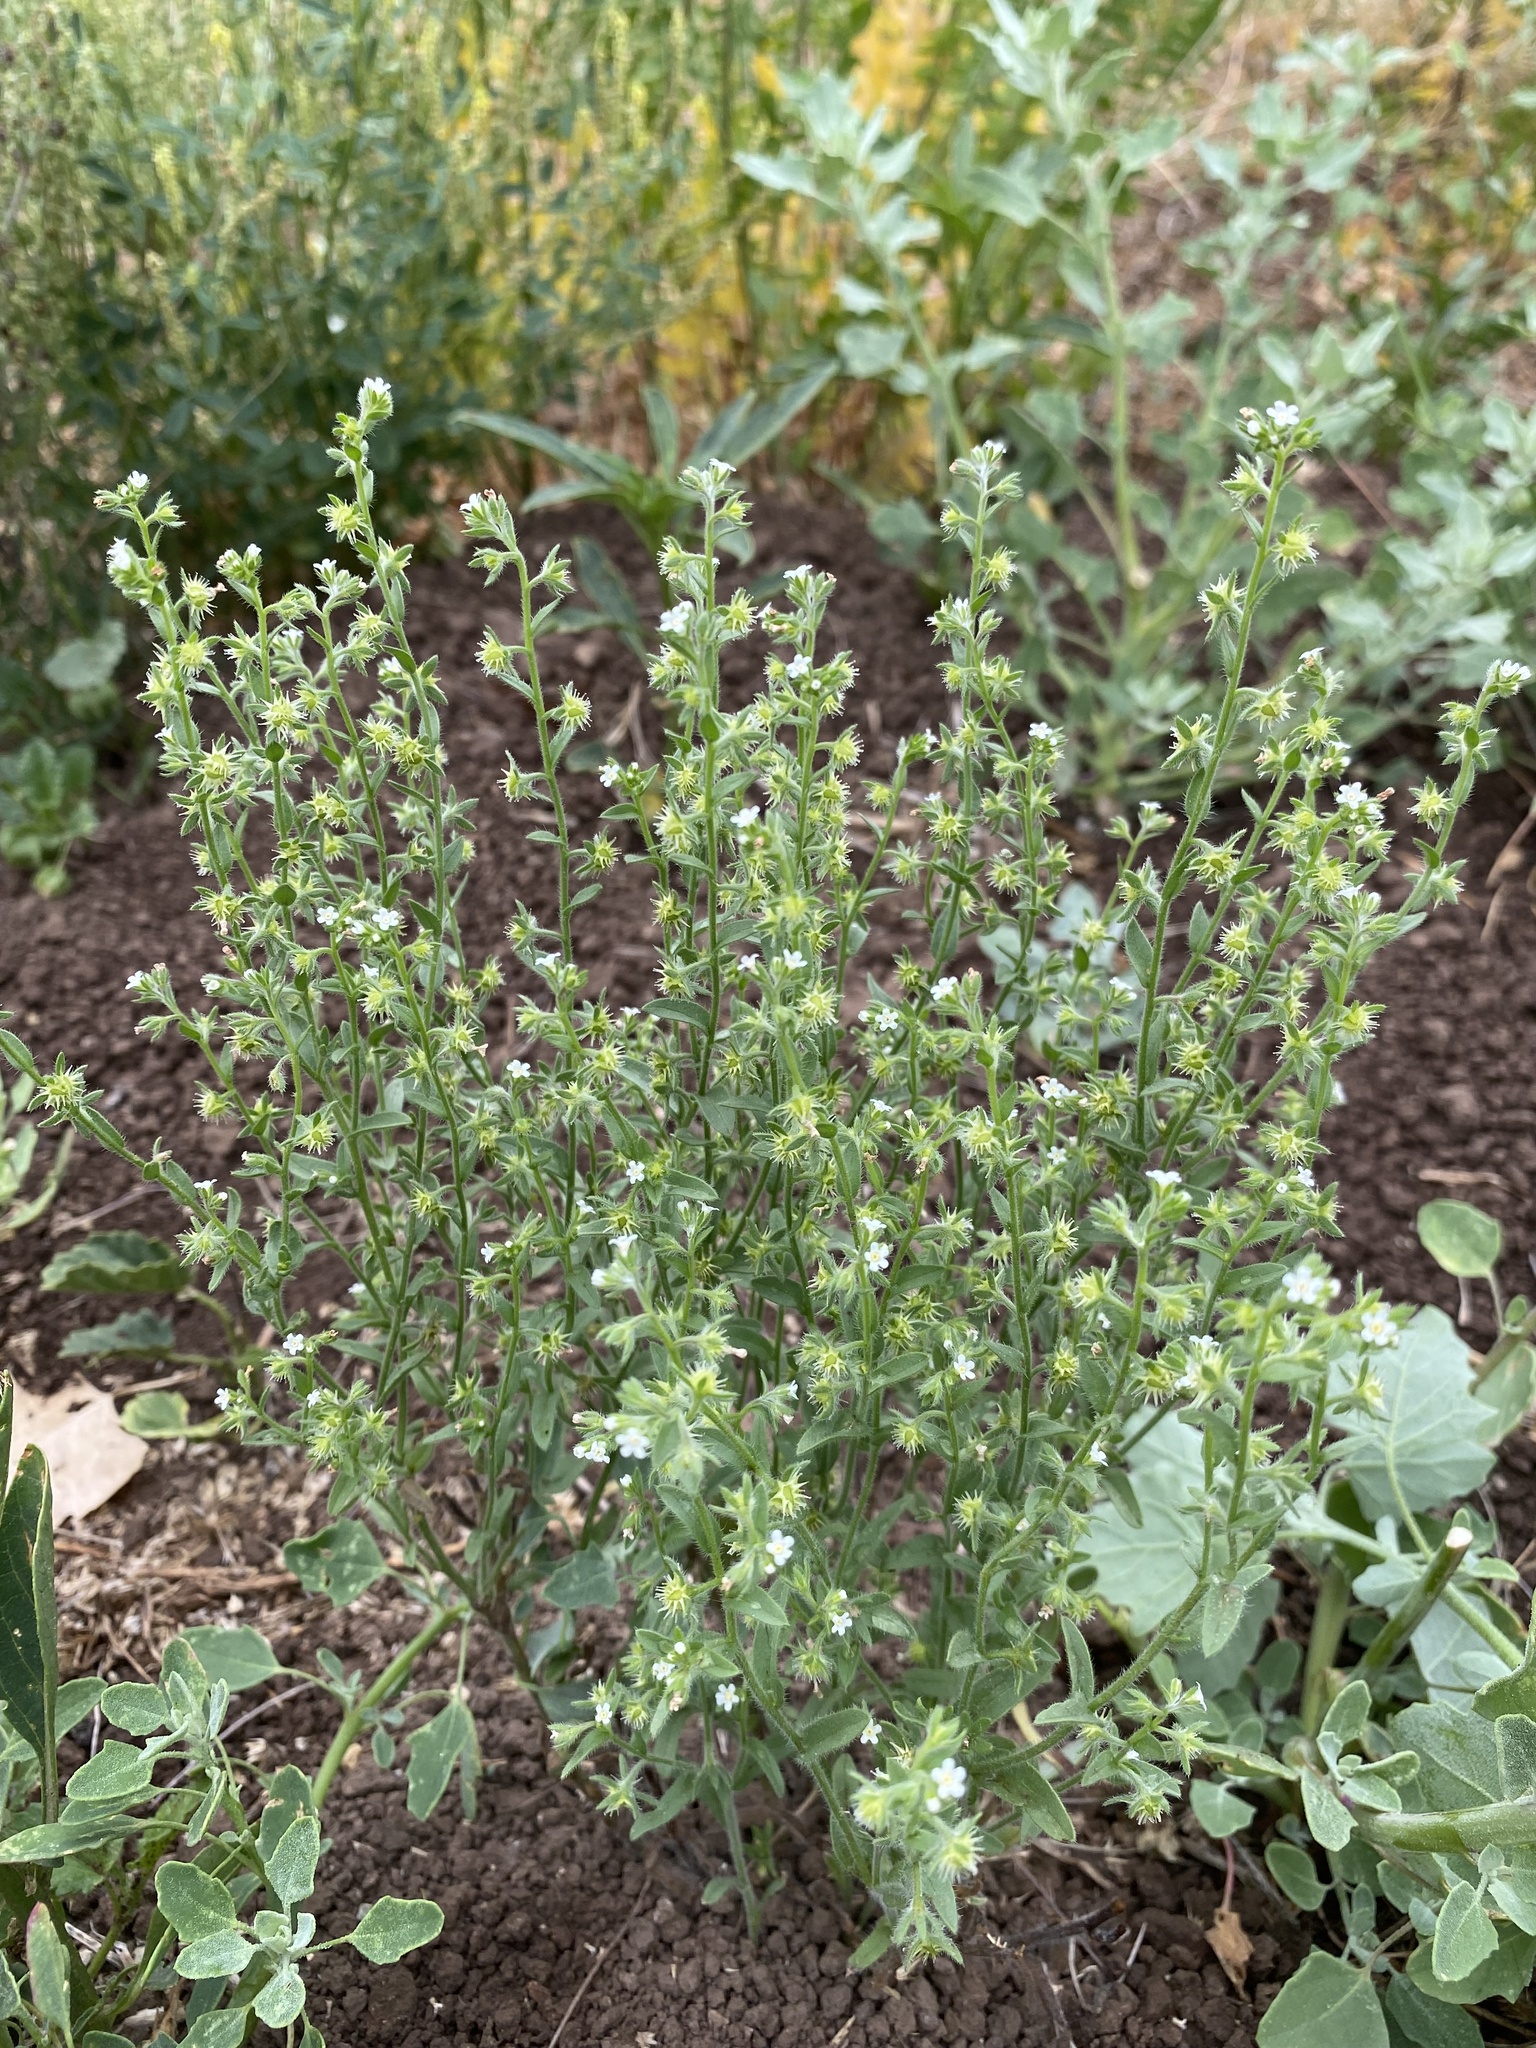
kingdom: Plantae
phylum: Tracheophyta
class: Magnoliopsida
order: Boraginales
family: Boraginaceae
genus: Lappula
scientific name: Lappula occidentalis
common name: Western stickseed
